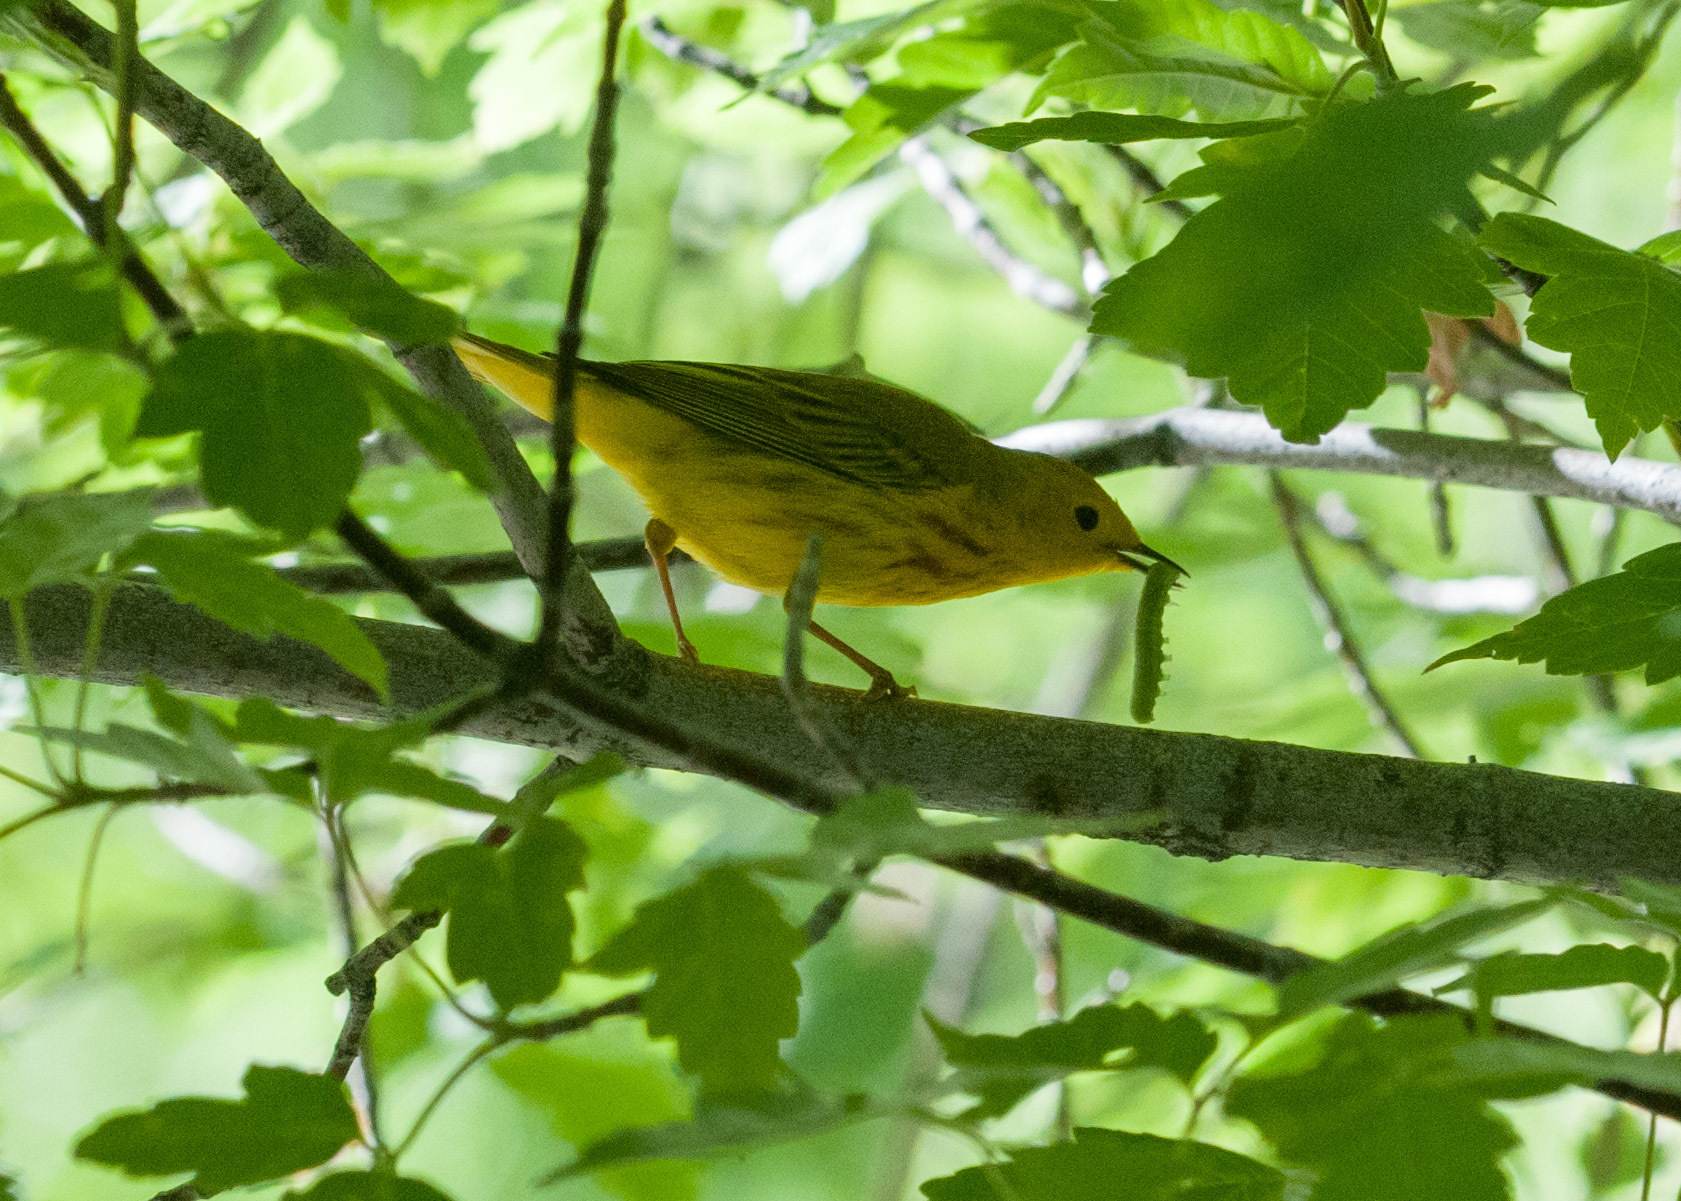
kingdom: Animalia
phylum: Chordata
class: Aves
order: Passeriformes
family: Parulidae
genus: Setophaga
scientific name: Setophaga petechia
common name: Yellow warbler
